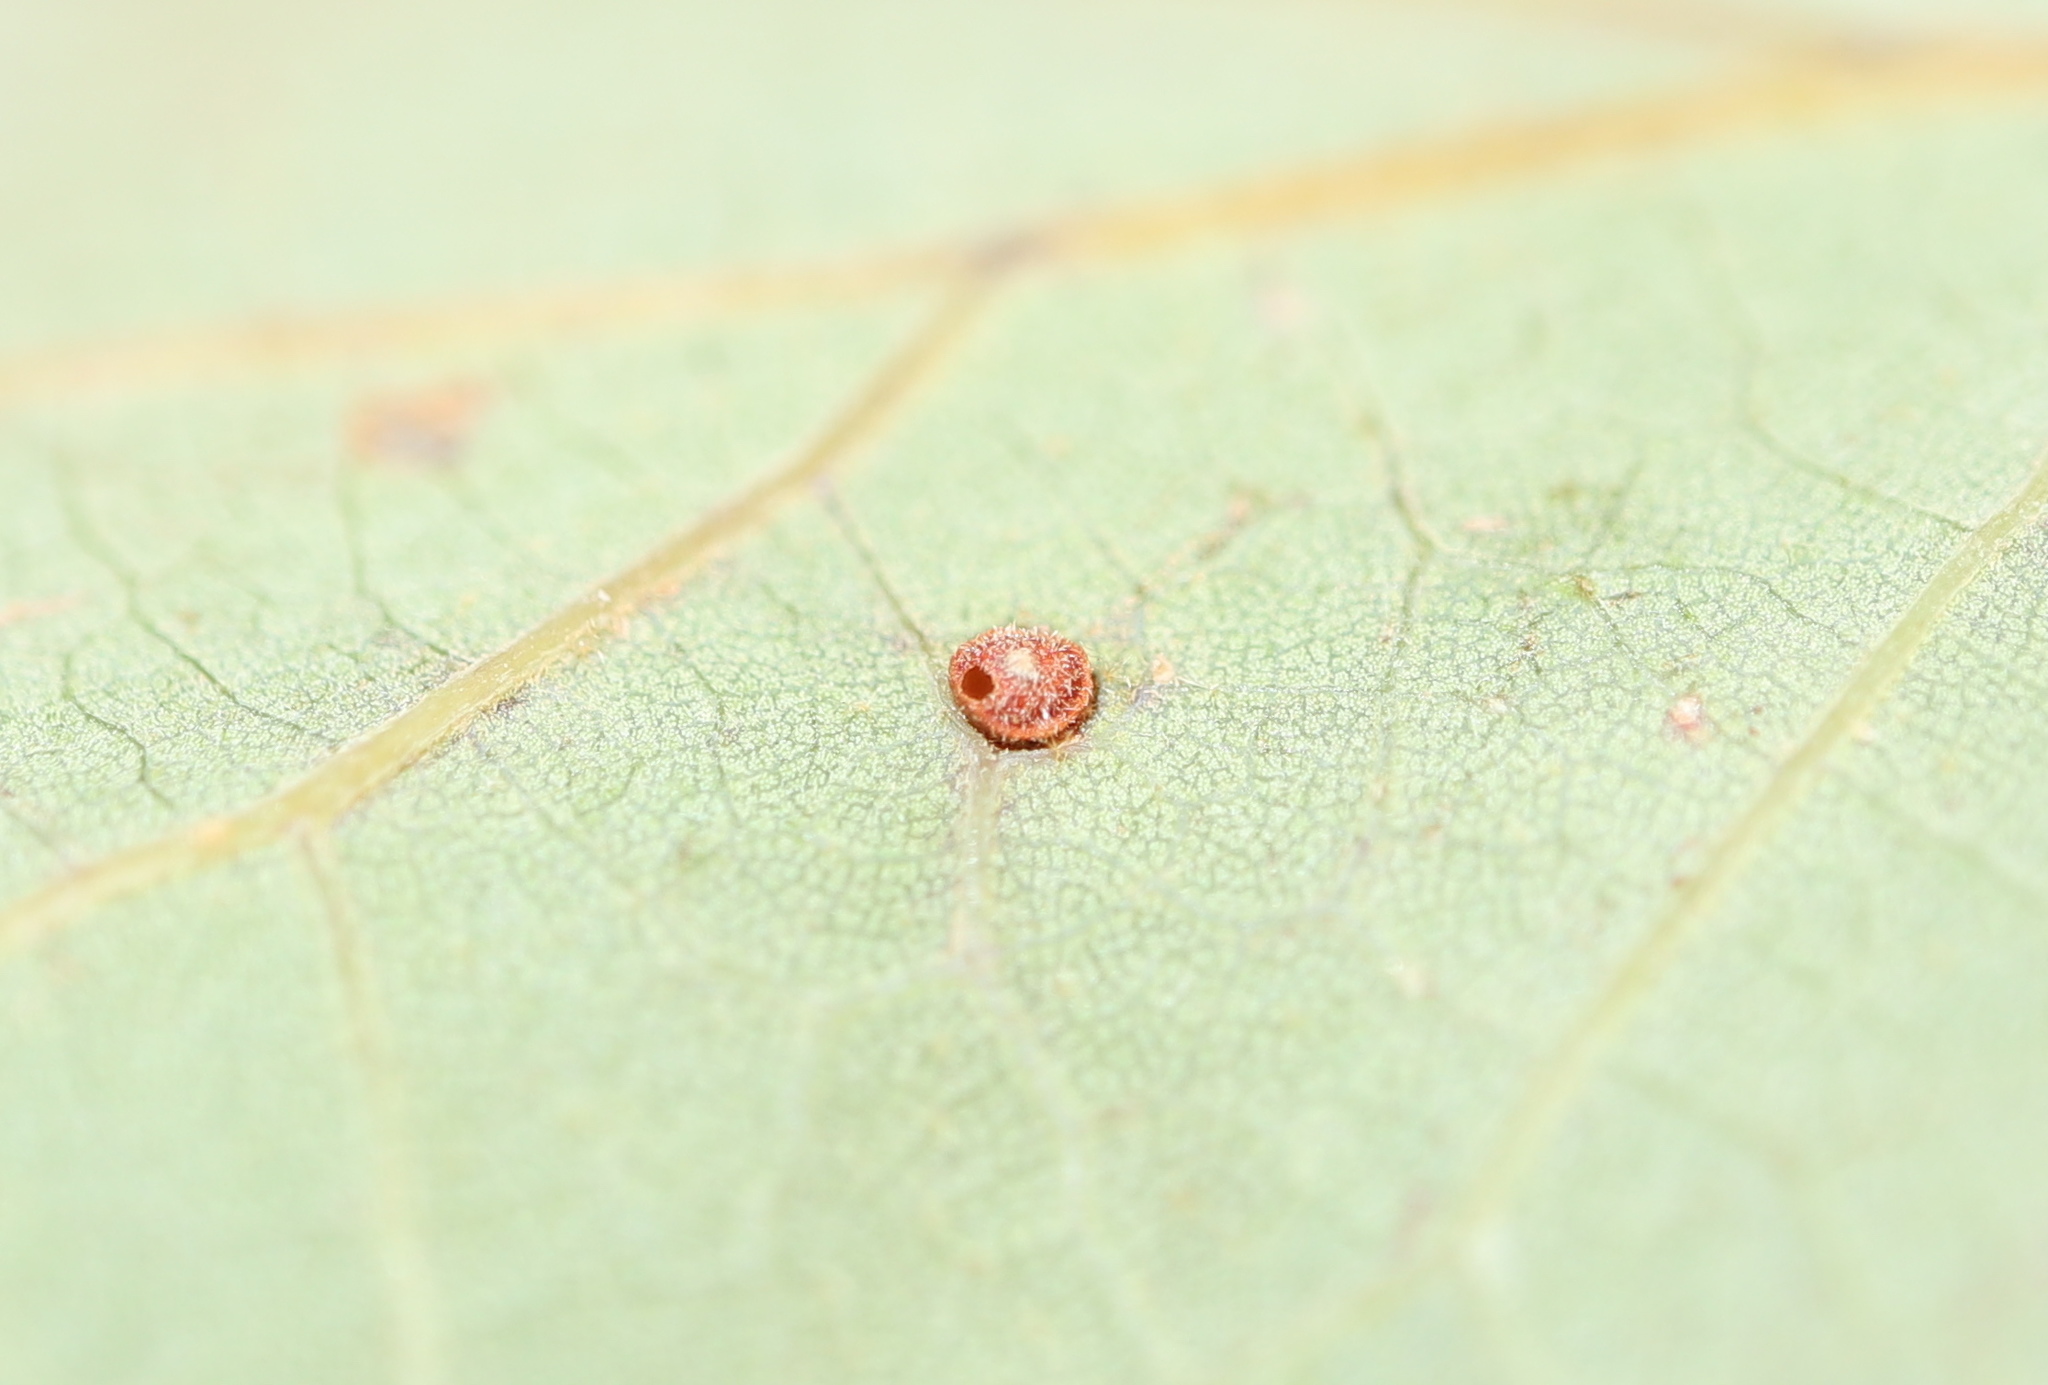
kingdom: Animalia
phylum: Arthropoda
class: Insecta
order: Hymenoptera
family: Cynipidae
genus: Neuroterus
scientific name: Neuroterus
